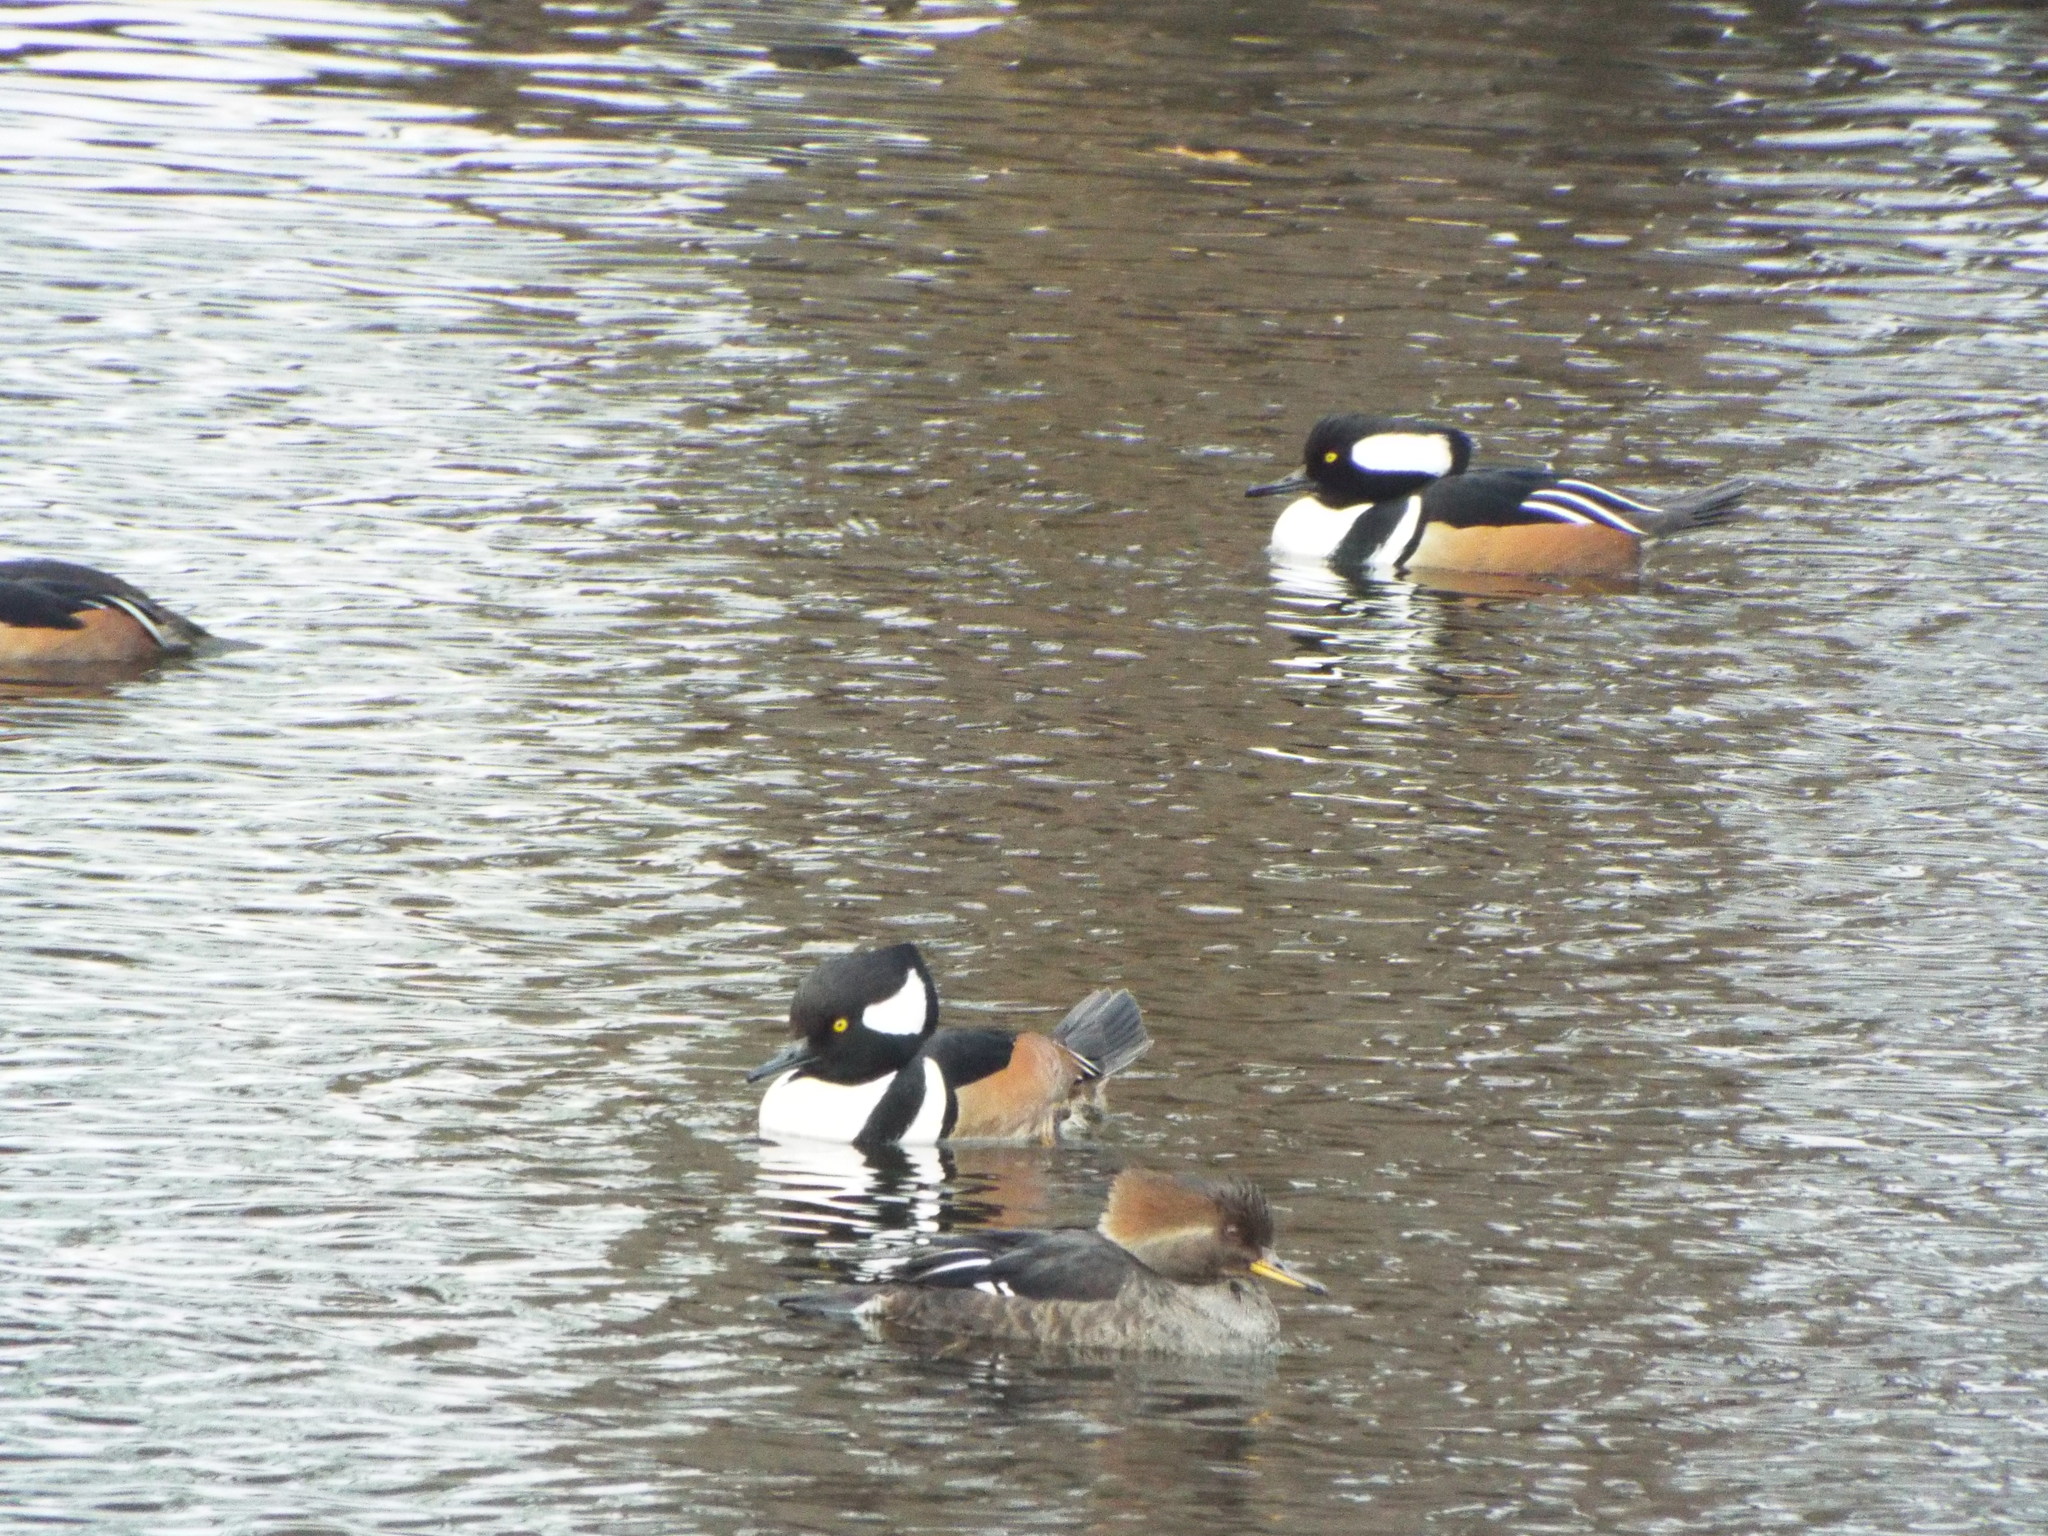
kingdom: Animalia
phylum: Chordata
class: Aves
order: Anseriformes
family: Anatidae
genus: Lophodytes
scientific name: Lophodytes cucullatus
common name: Hooded merganser
